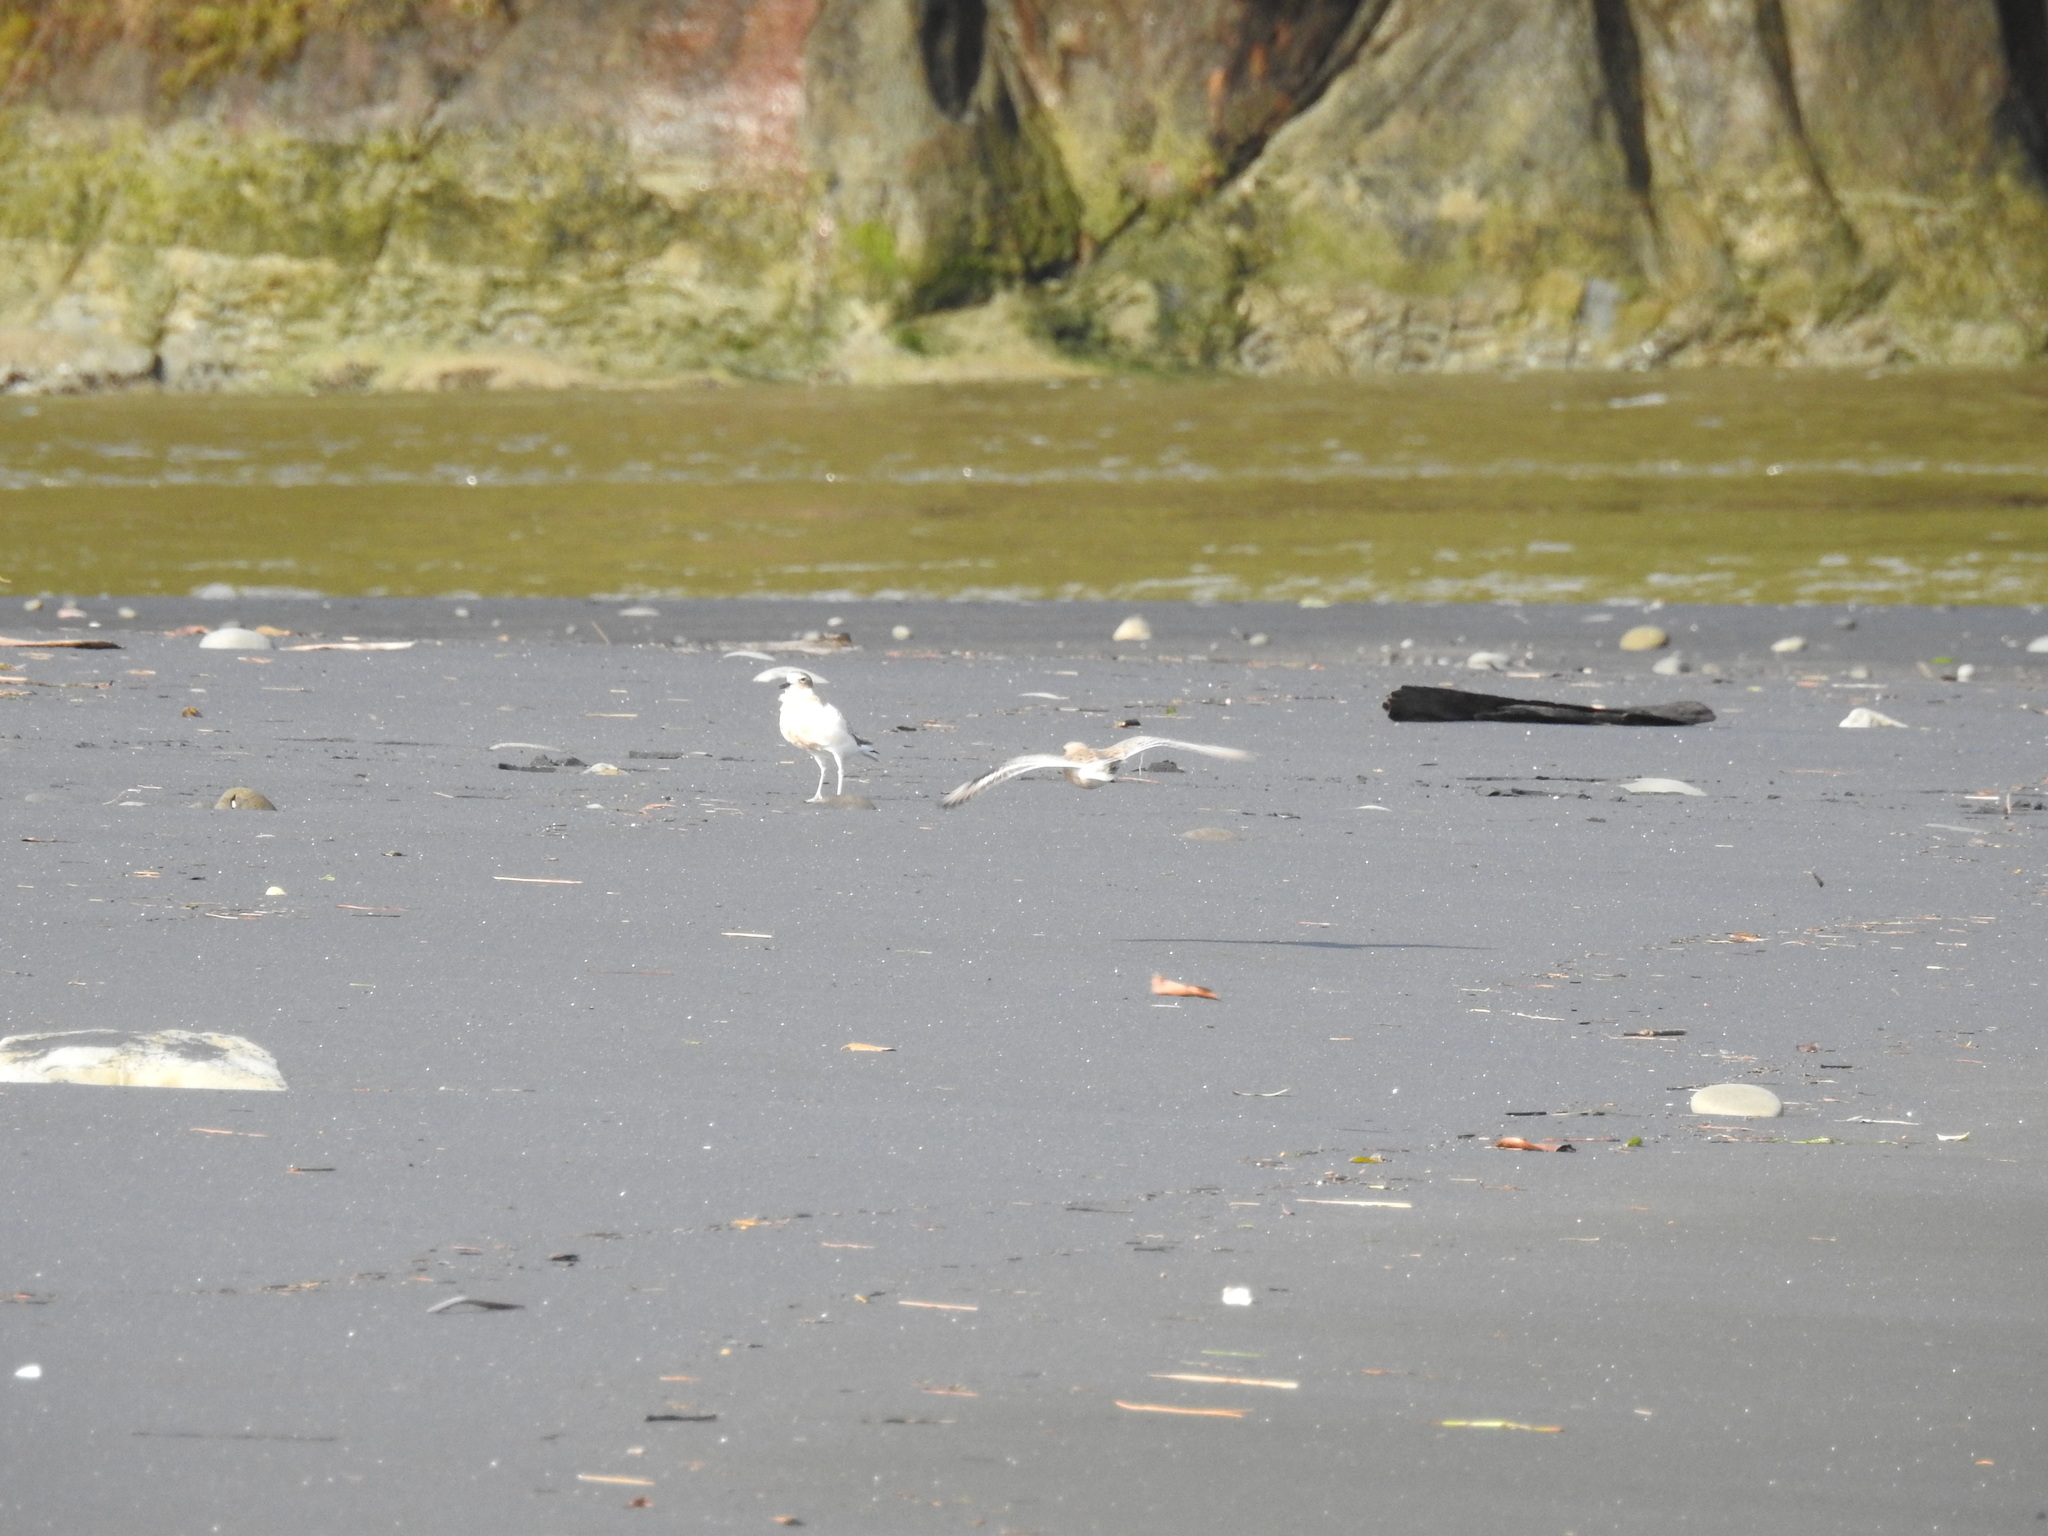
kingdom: Animalia
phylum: Chordata
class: Aves
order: Charadriiformes
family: Charadriidae
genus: Anarhynchus
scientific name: Anarhynchus
